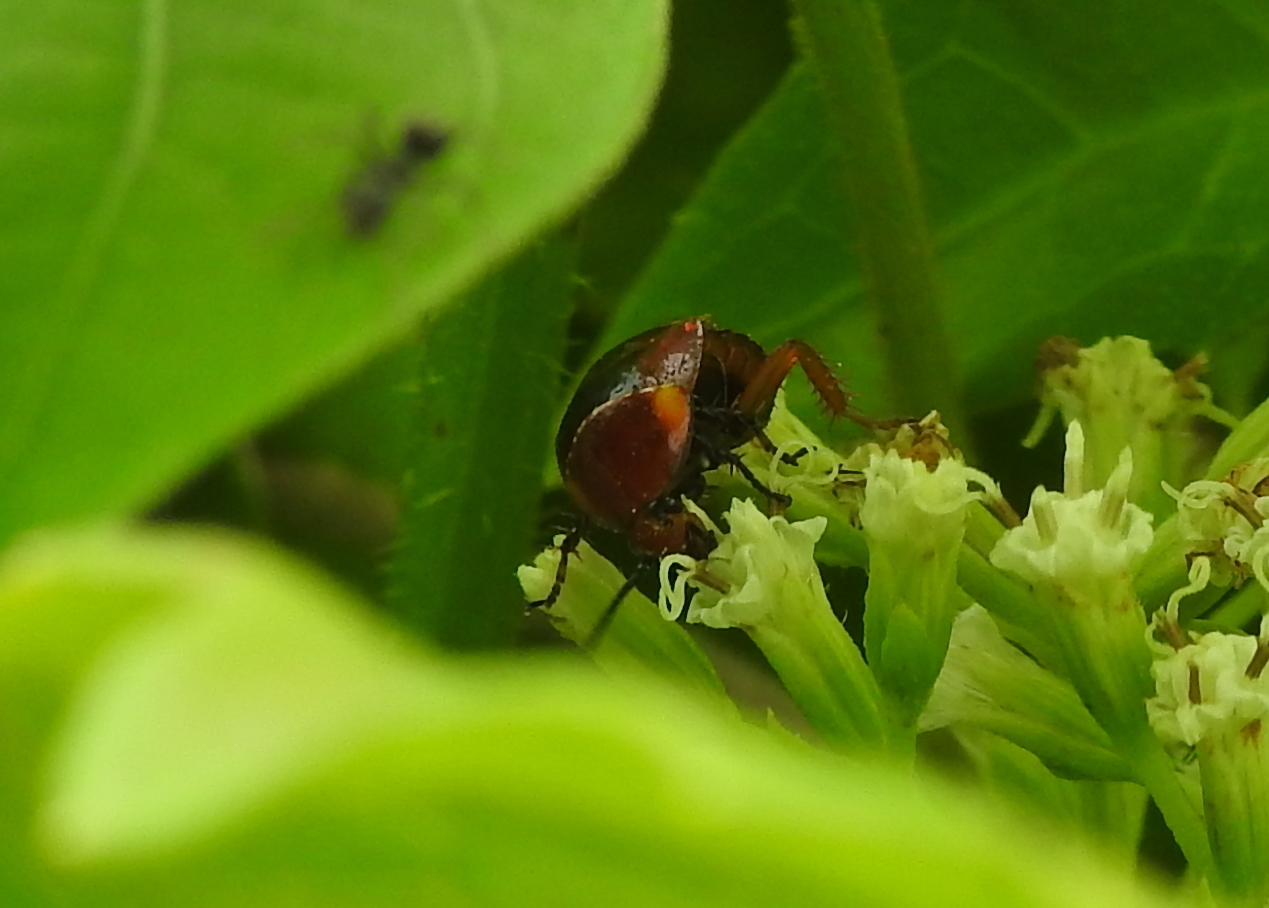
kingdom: Animalia
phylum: Arthropoda
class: Insecta
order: Blattodea
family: Ectobiidae
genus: Hemithyrsocera
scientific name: Hemithyrsocera palliata
